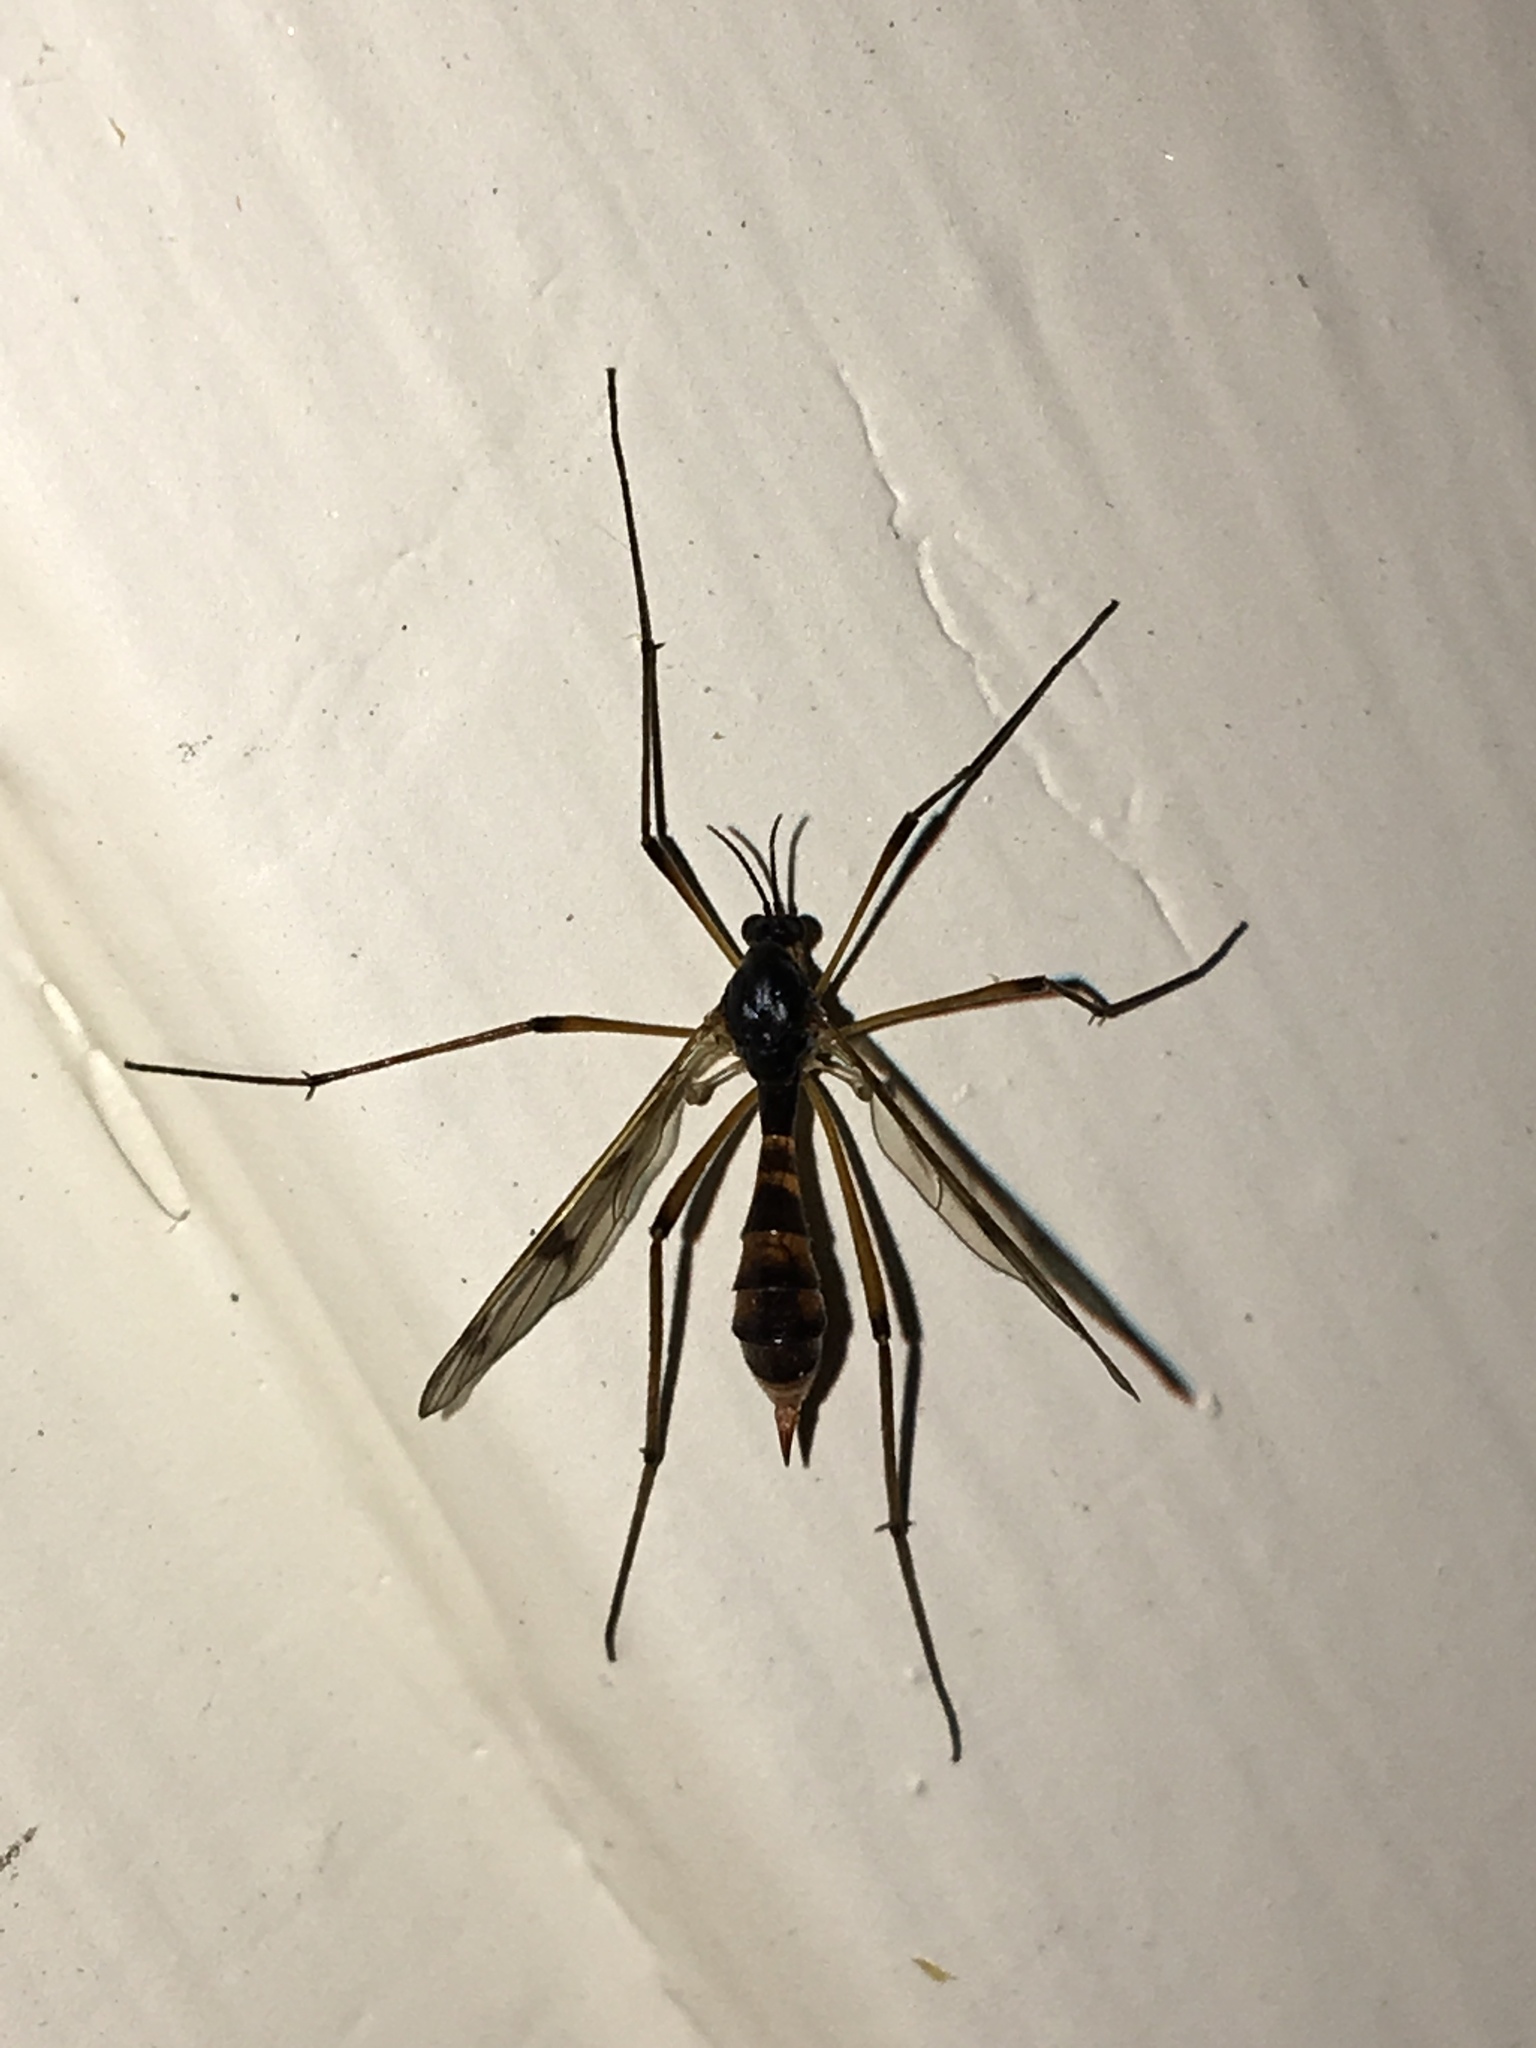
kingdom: Animalia
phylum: Arthropoda
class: Insecta
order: Diptera
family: Ptychopteridae
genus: Ptychoptera
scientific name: Ptychoptera quadrifasciata
